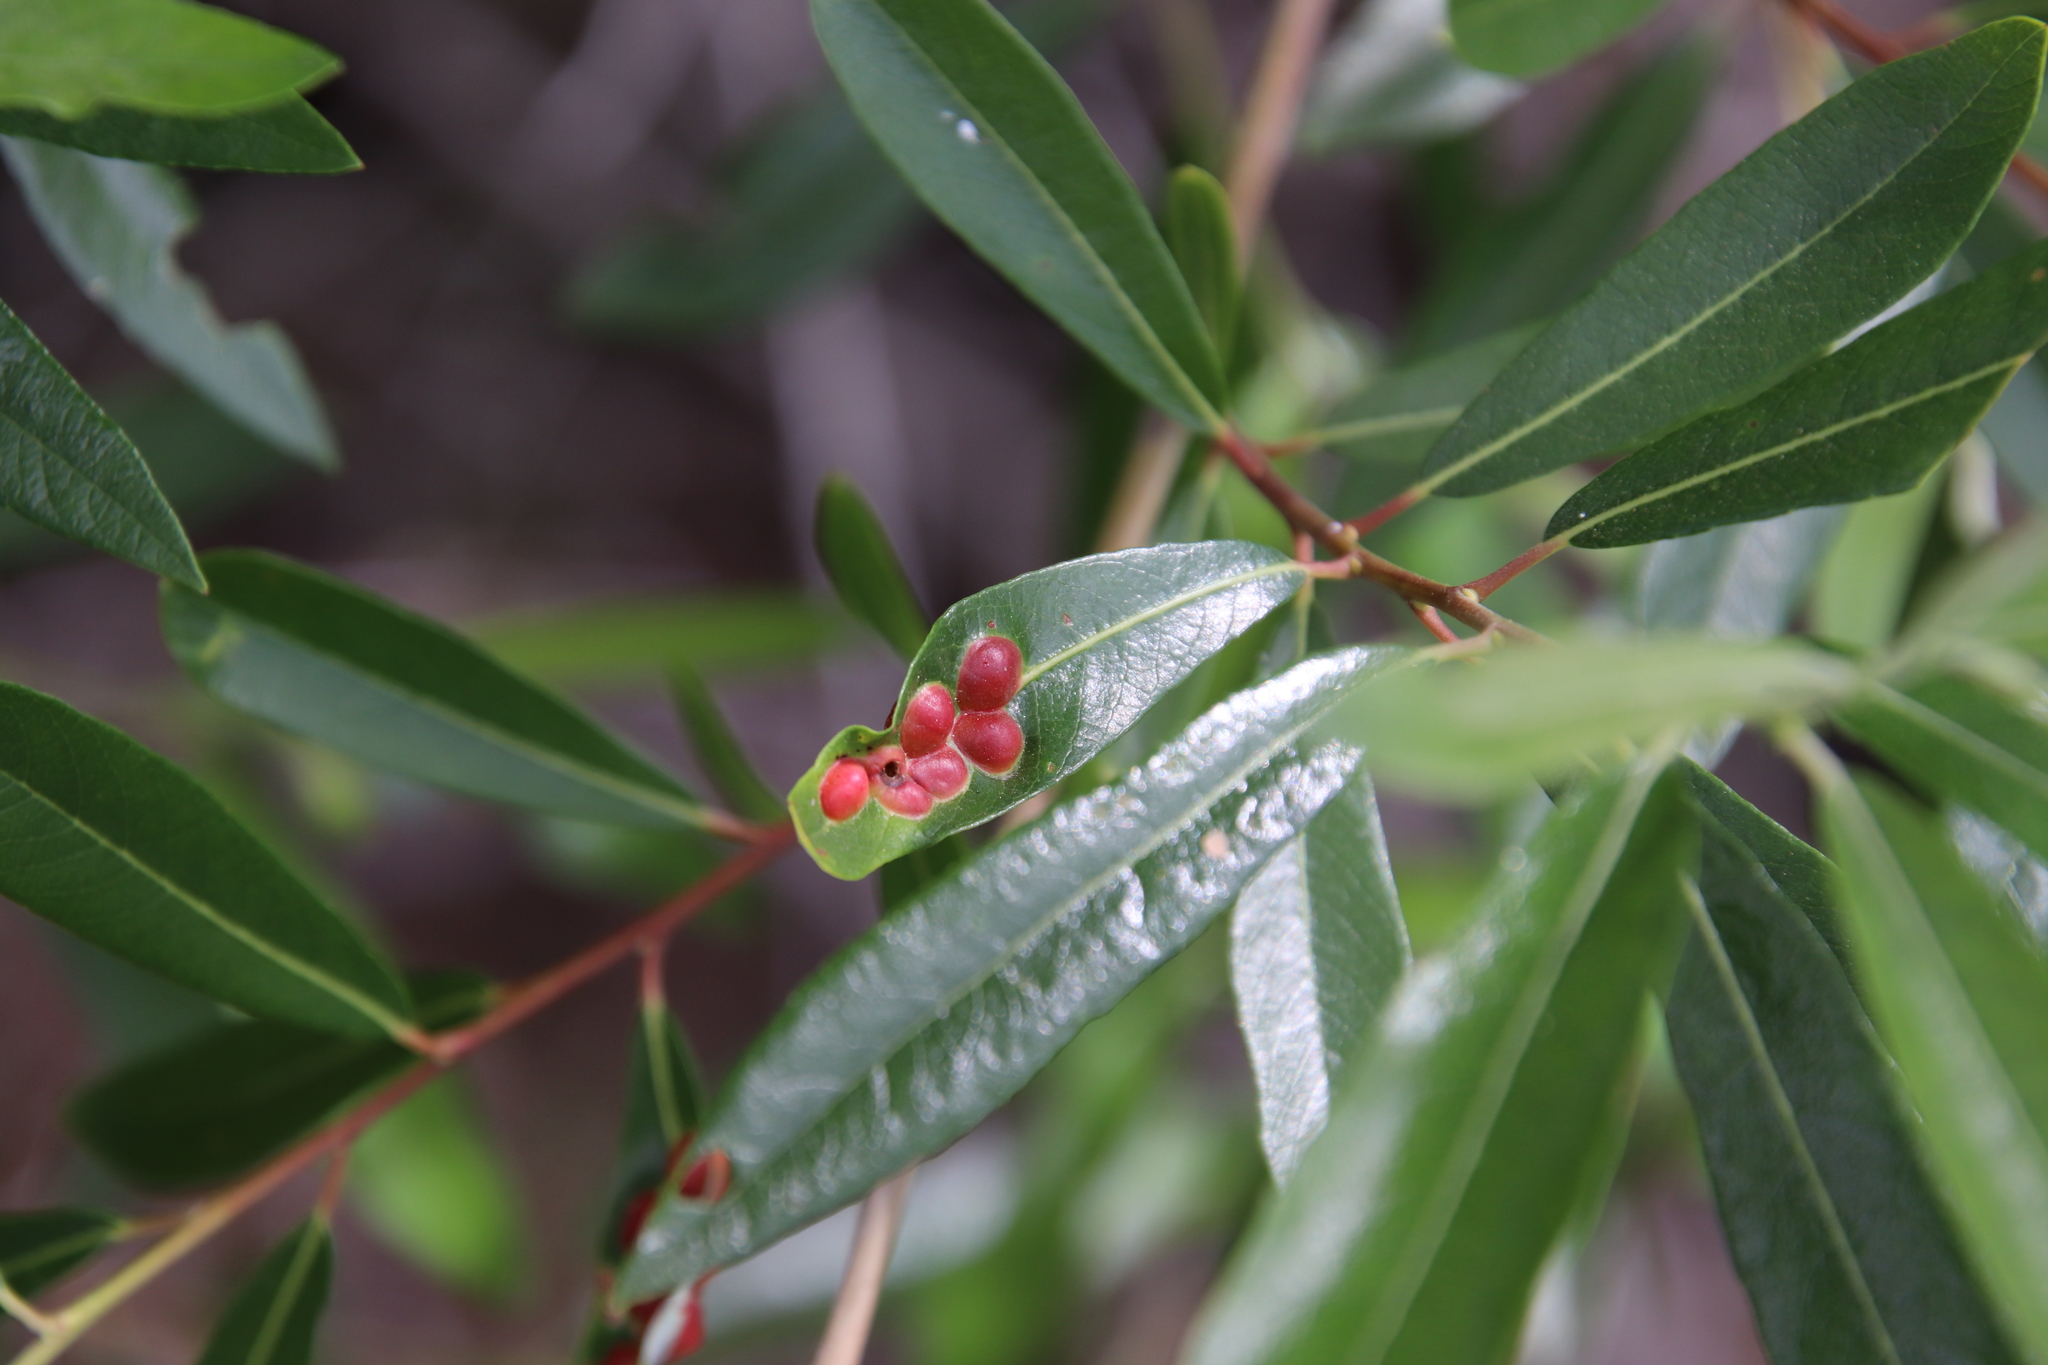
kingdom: Animalia
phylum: Arthropoda
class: Insecta
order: Hymenoptera
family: Tenthredinidae
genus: Euura
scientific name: Euura
